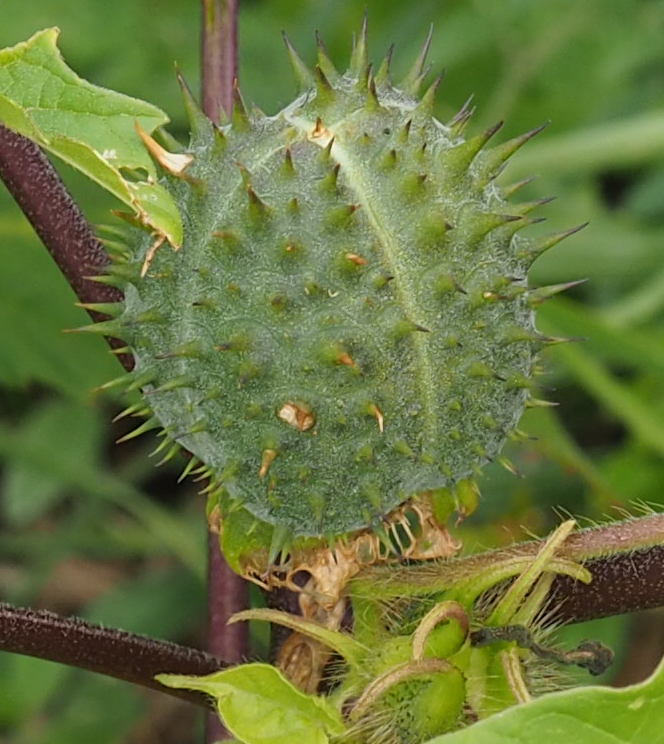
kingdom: Plantae
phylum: Tracheophyta
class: Magnoliopsida
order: Solanales
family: Solanaceae
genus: Datura
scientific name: Datura stramonium
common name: Thorn-apple
